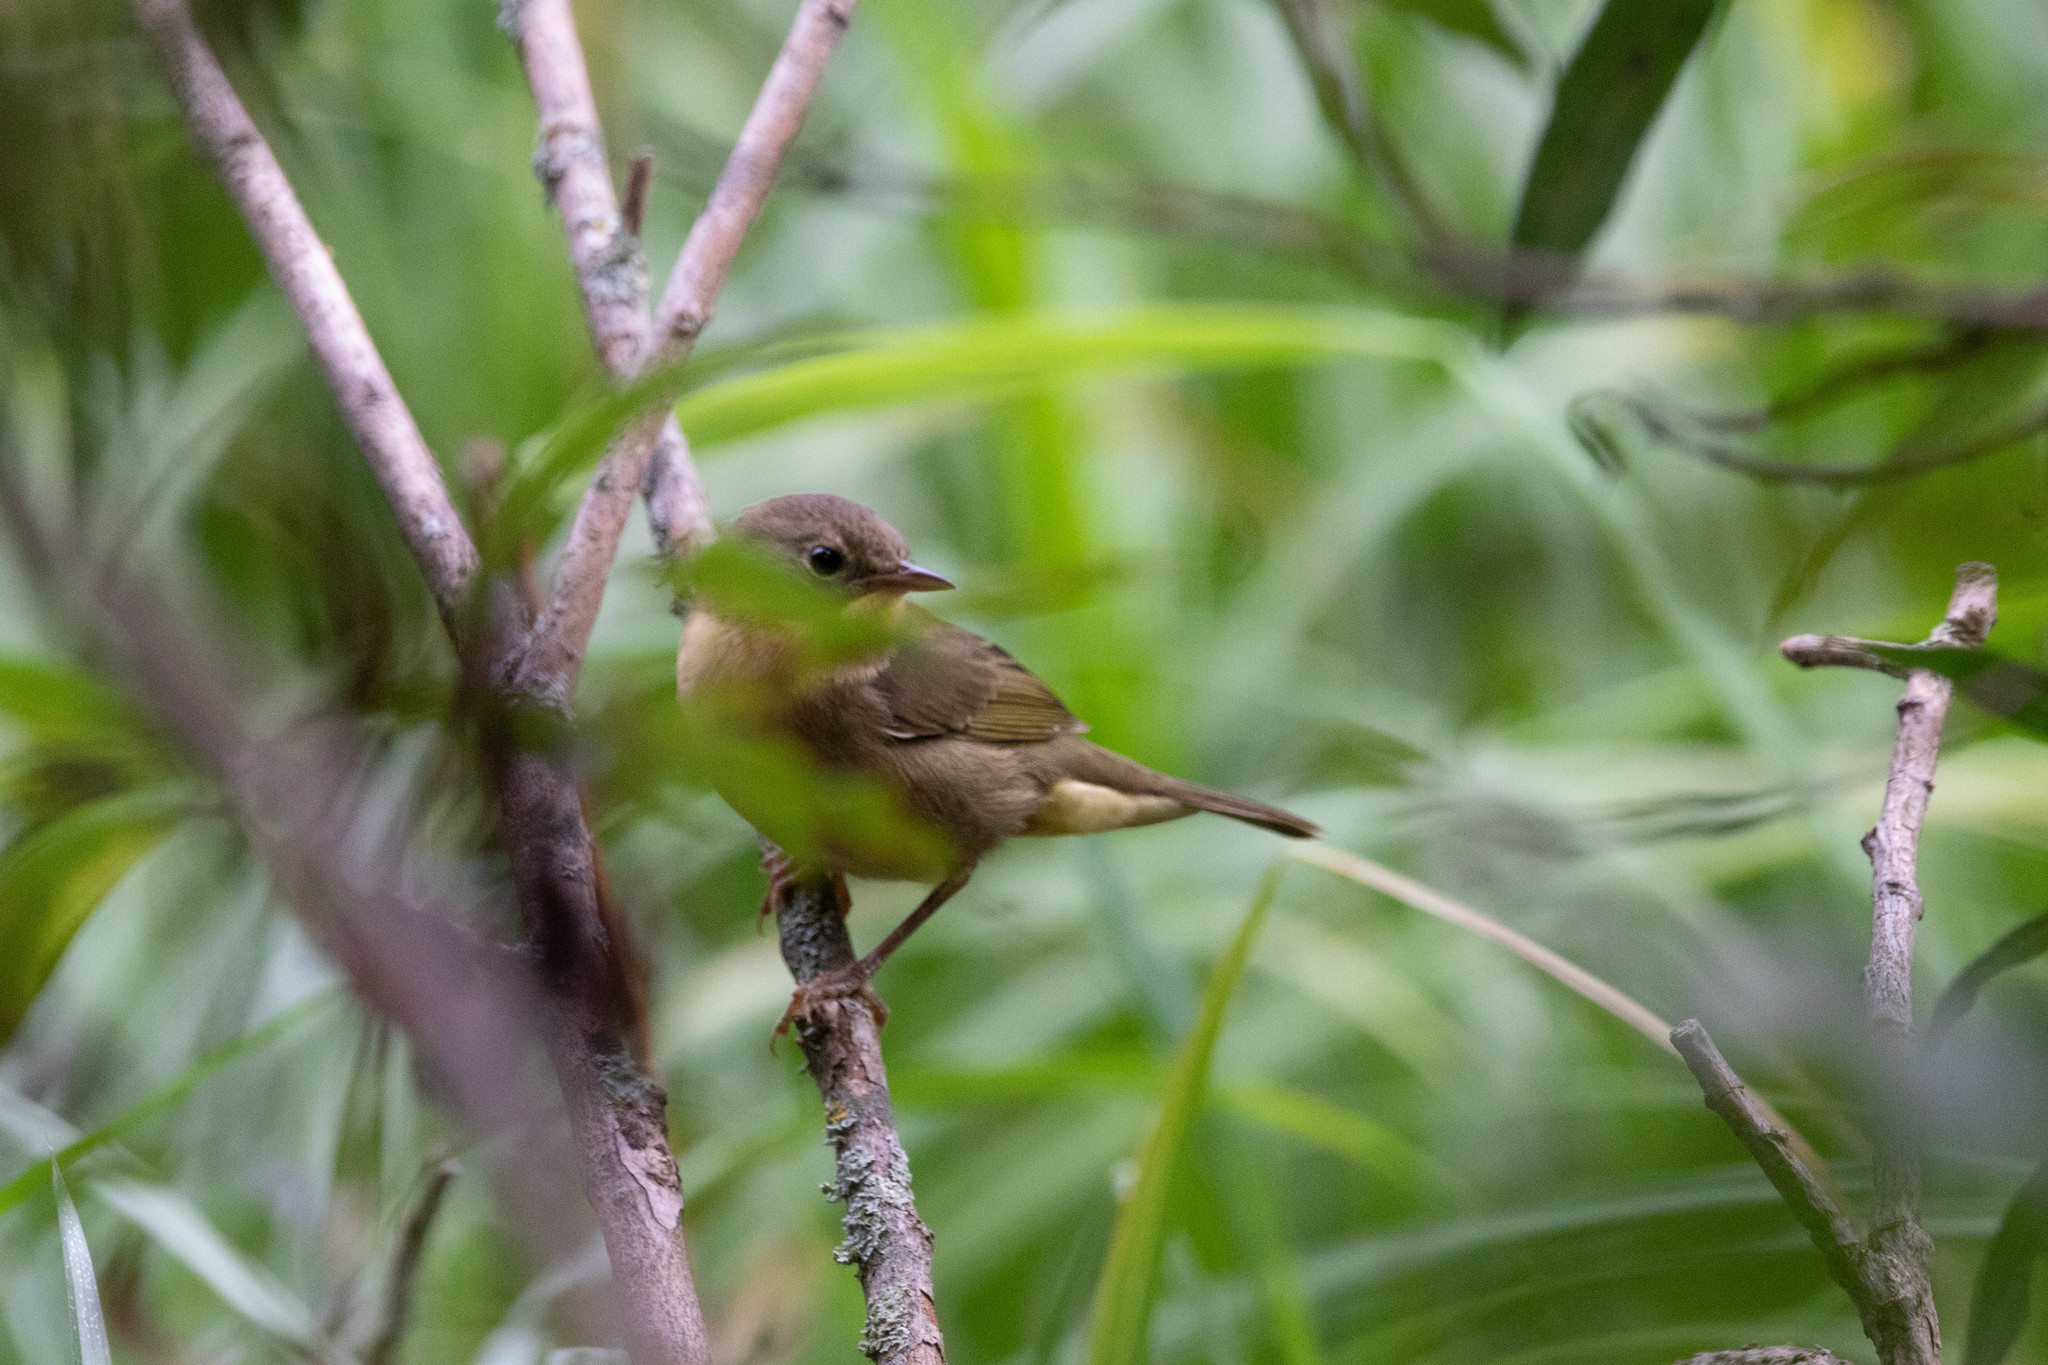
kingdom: Animalia
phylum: Chordata
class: Aves
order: Passeriformes
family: Parulidae
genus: Geothlypis
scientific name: Geothlypis trichas
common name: Common yellowthroat
